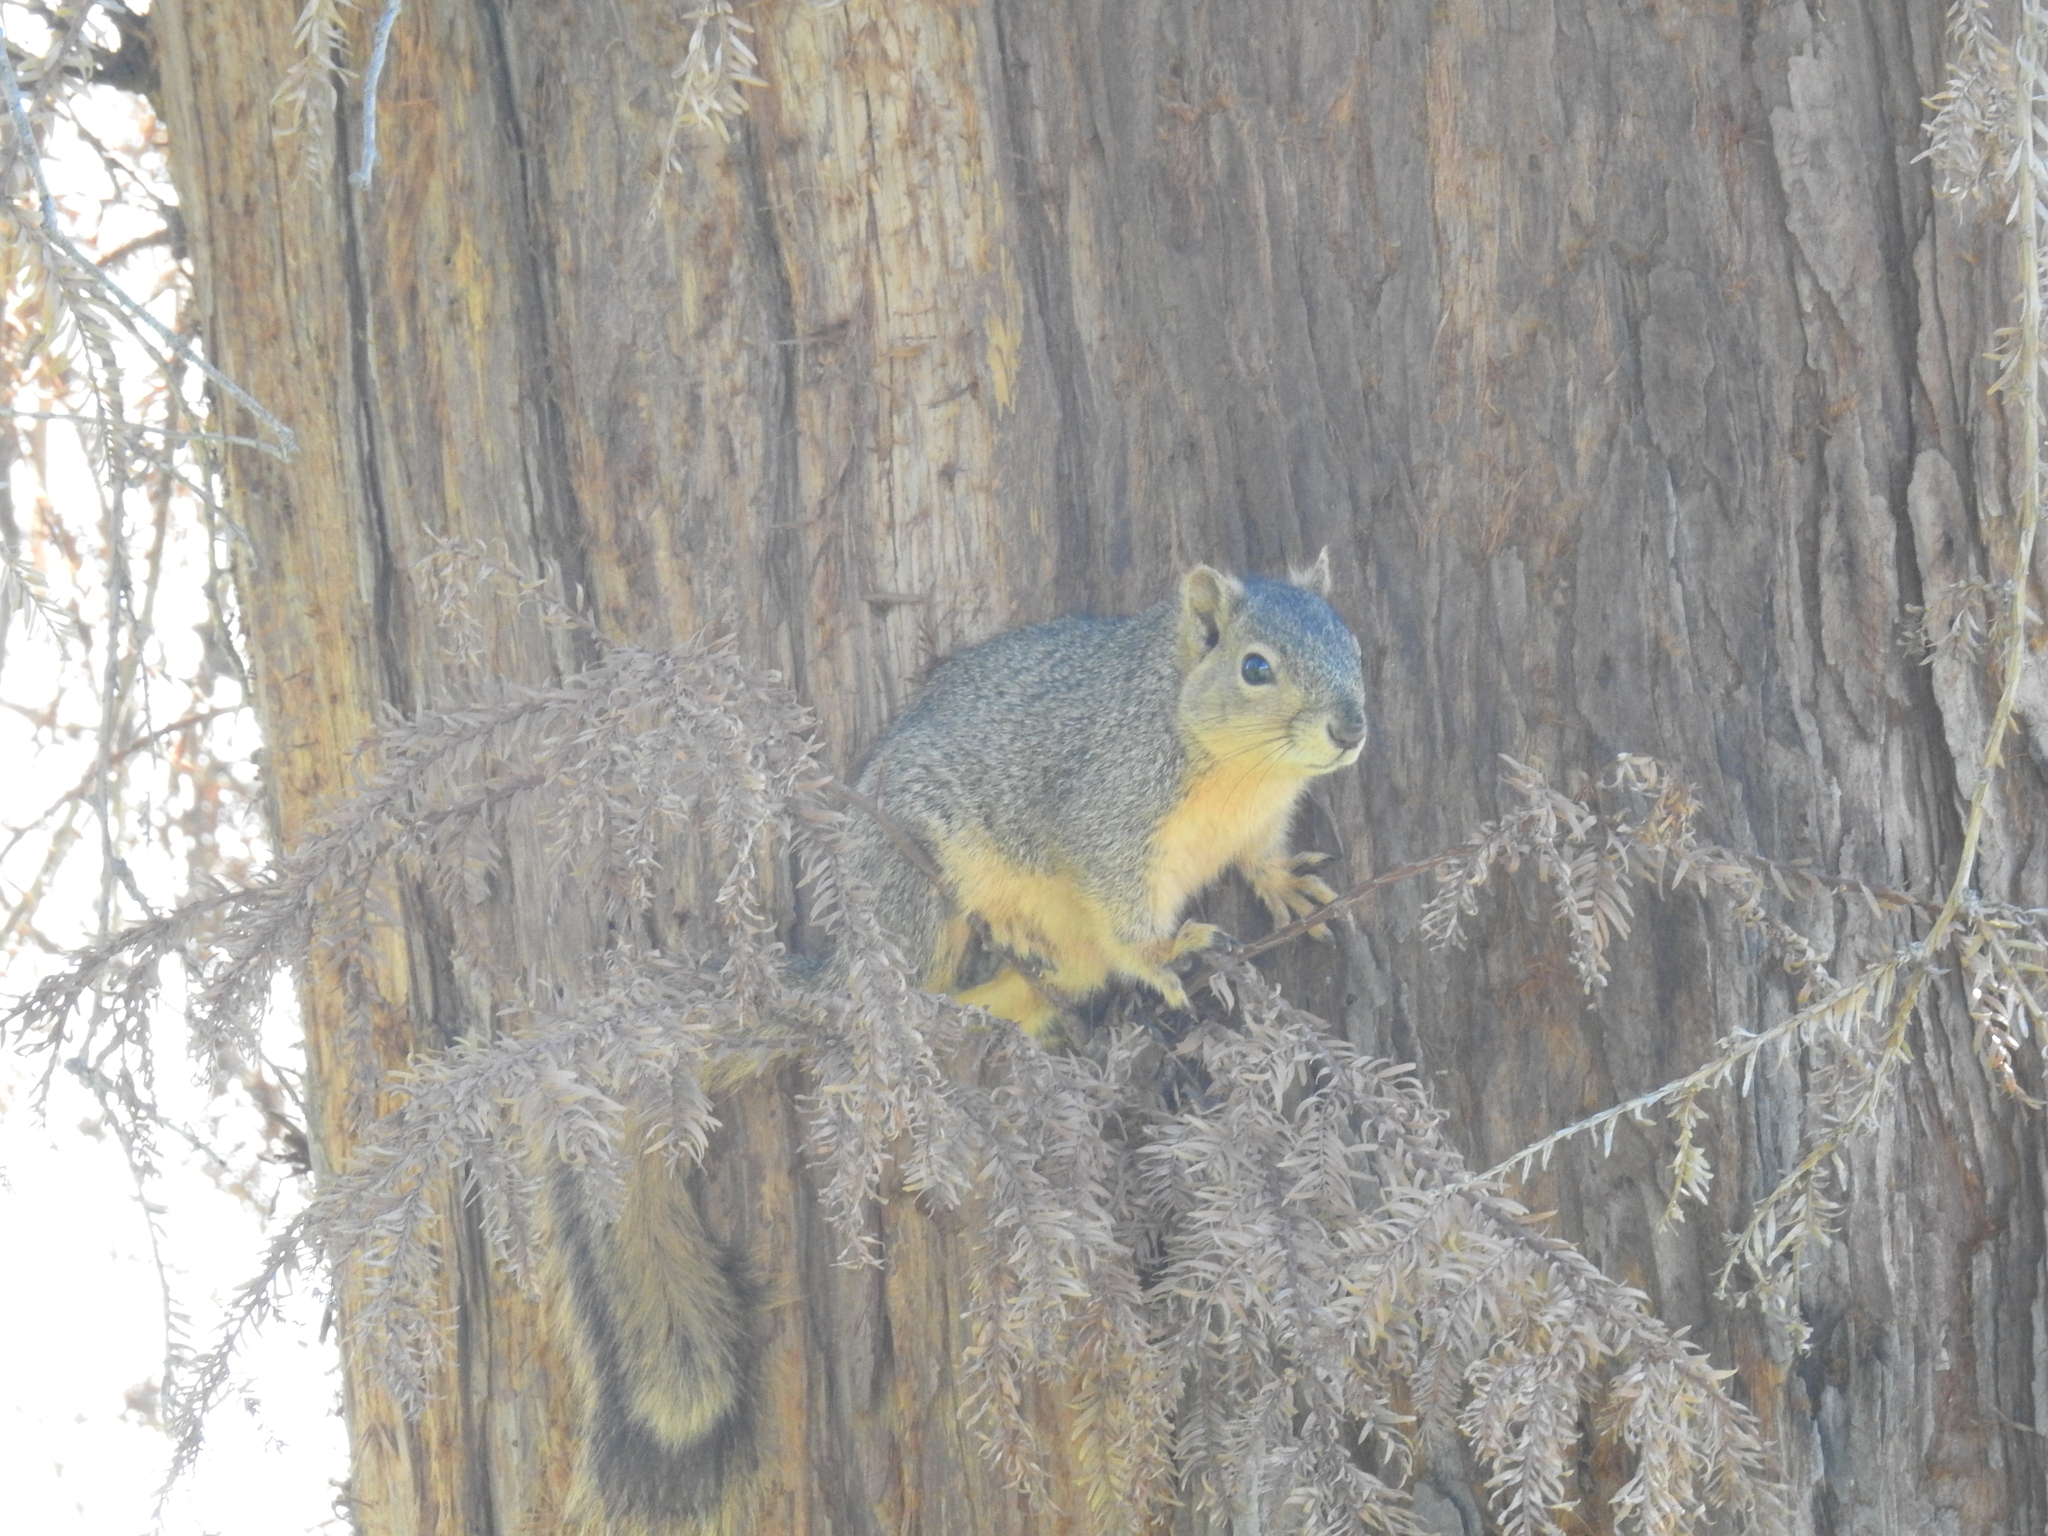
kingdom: Animalia
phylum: Chordata
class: Mammalia
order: Rodentia
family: Sciuridae
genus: Sciurus
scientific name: Sciurus niger
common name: Fox squirrel
